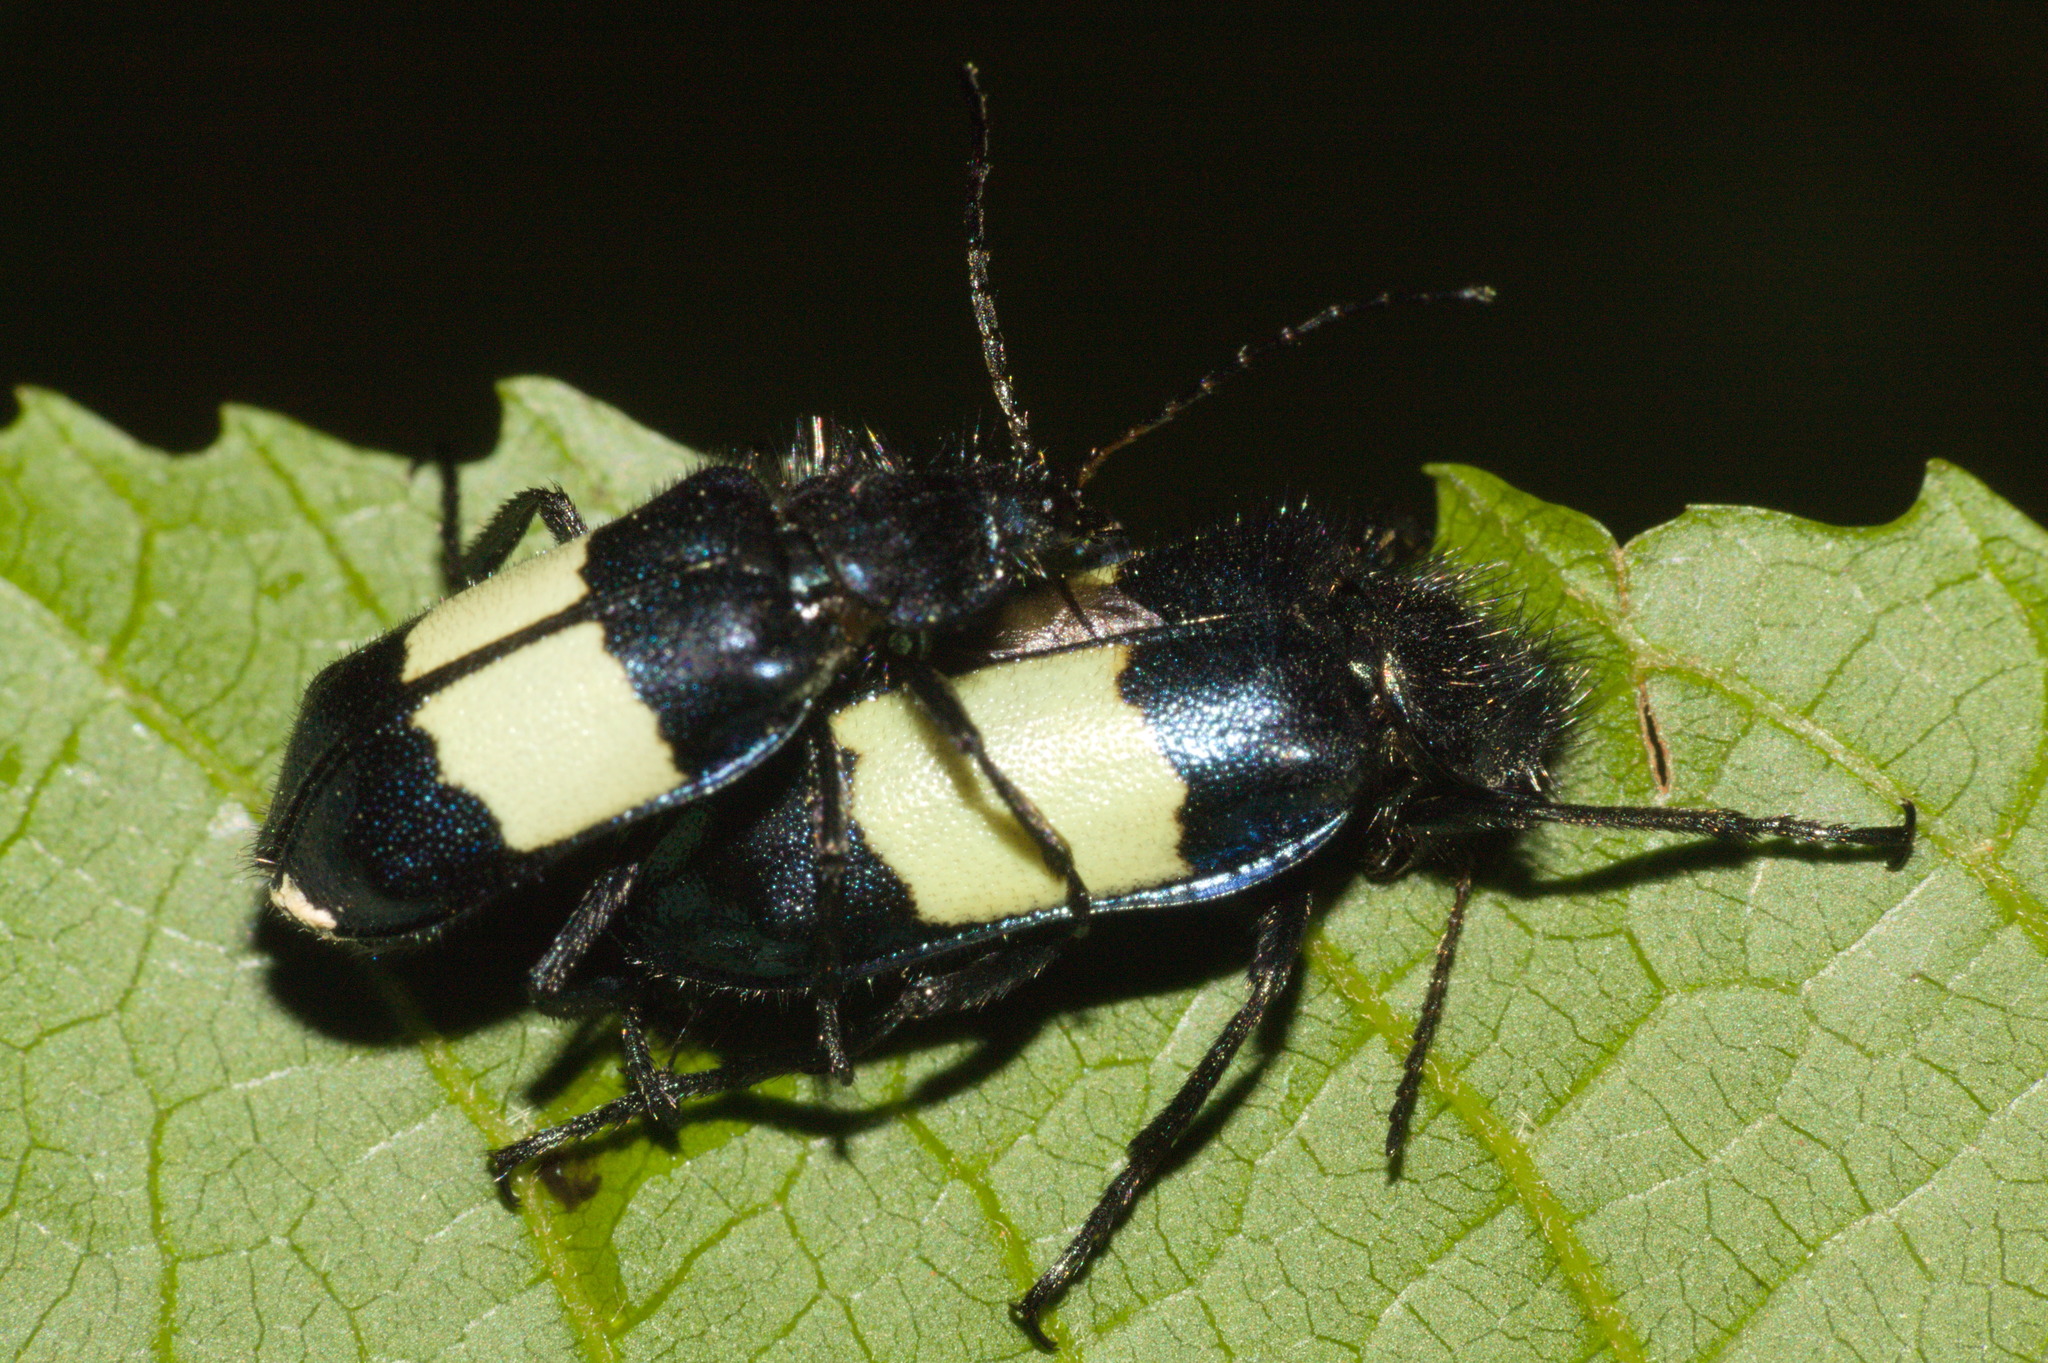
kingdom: Animalia
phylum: Arthropoda
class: Insecta
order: Coleoptera
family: Melyridae
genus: Astylus
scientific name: Astylus
